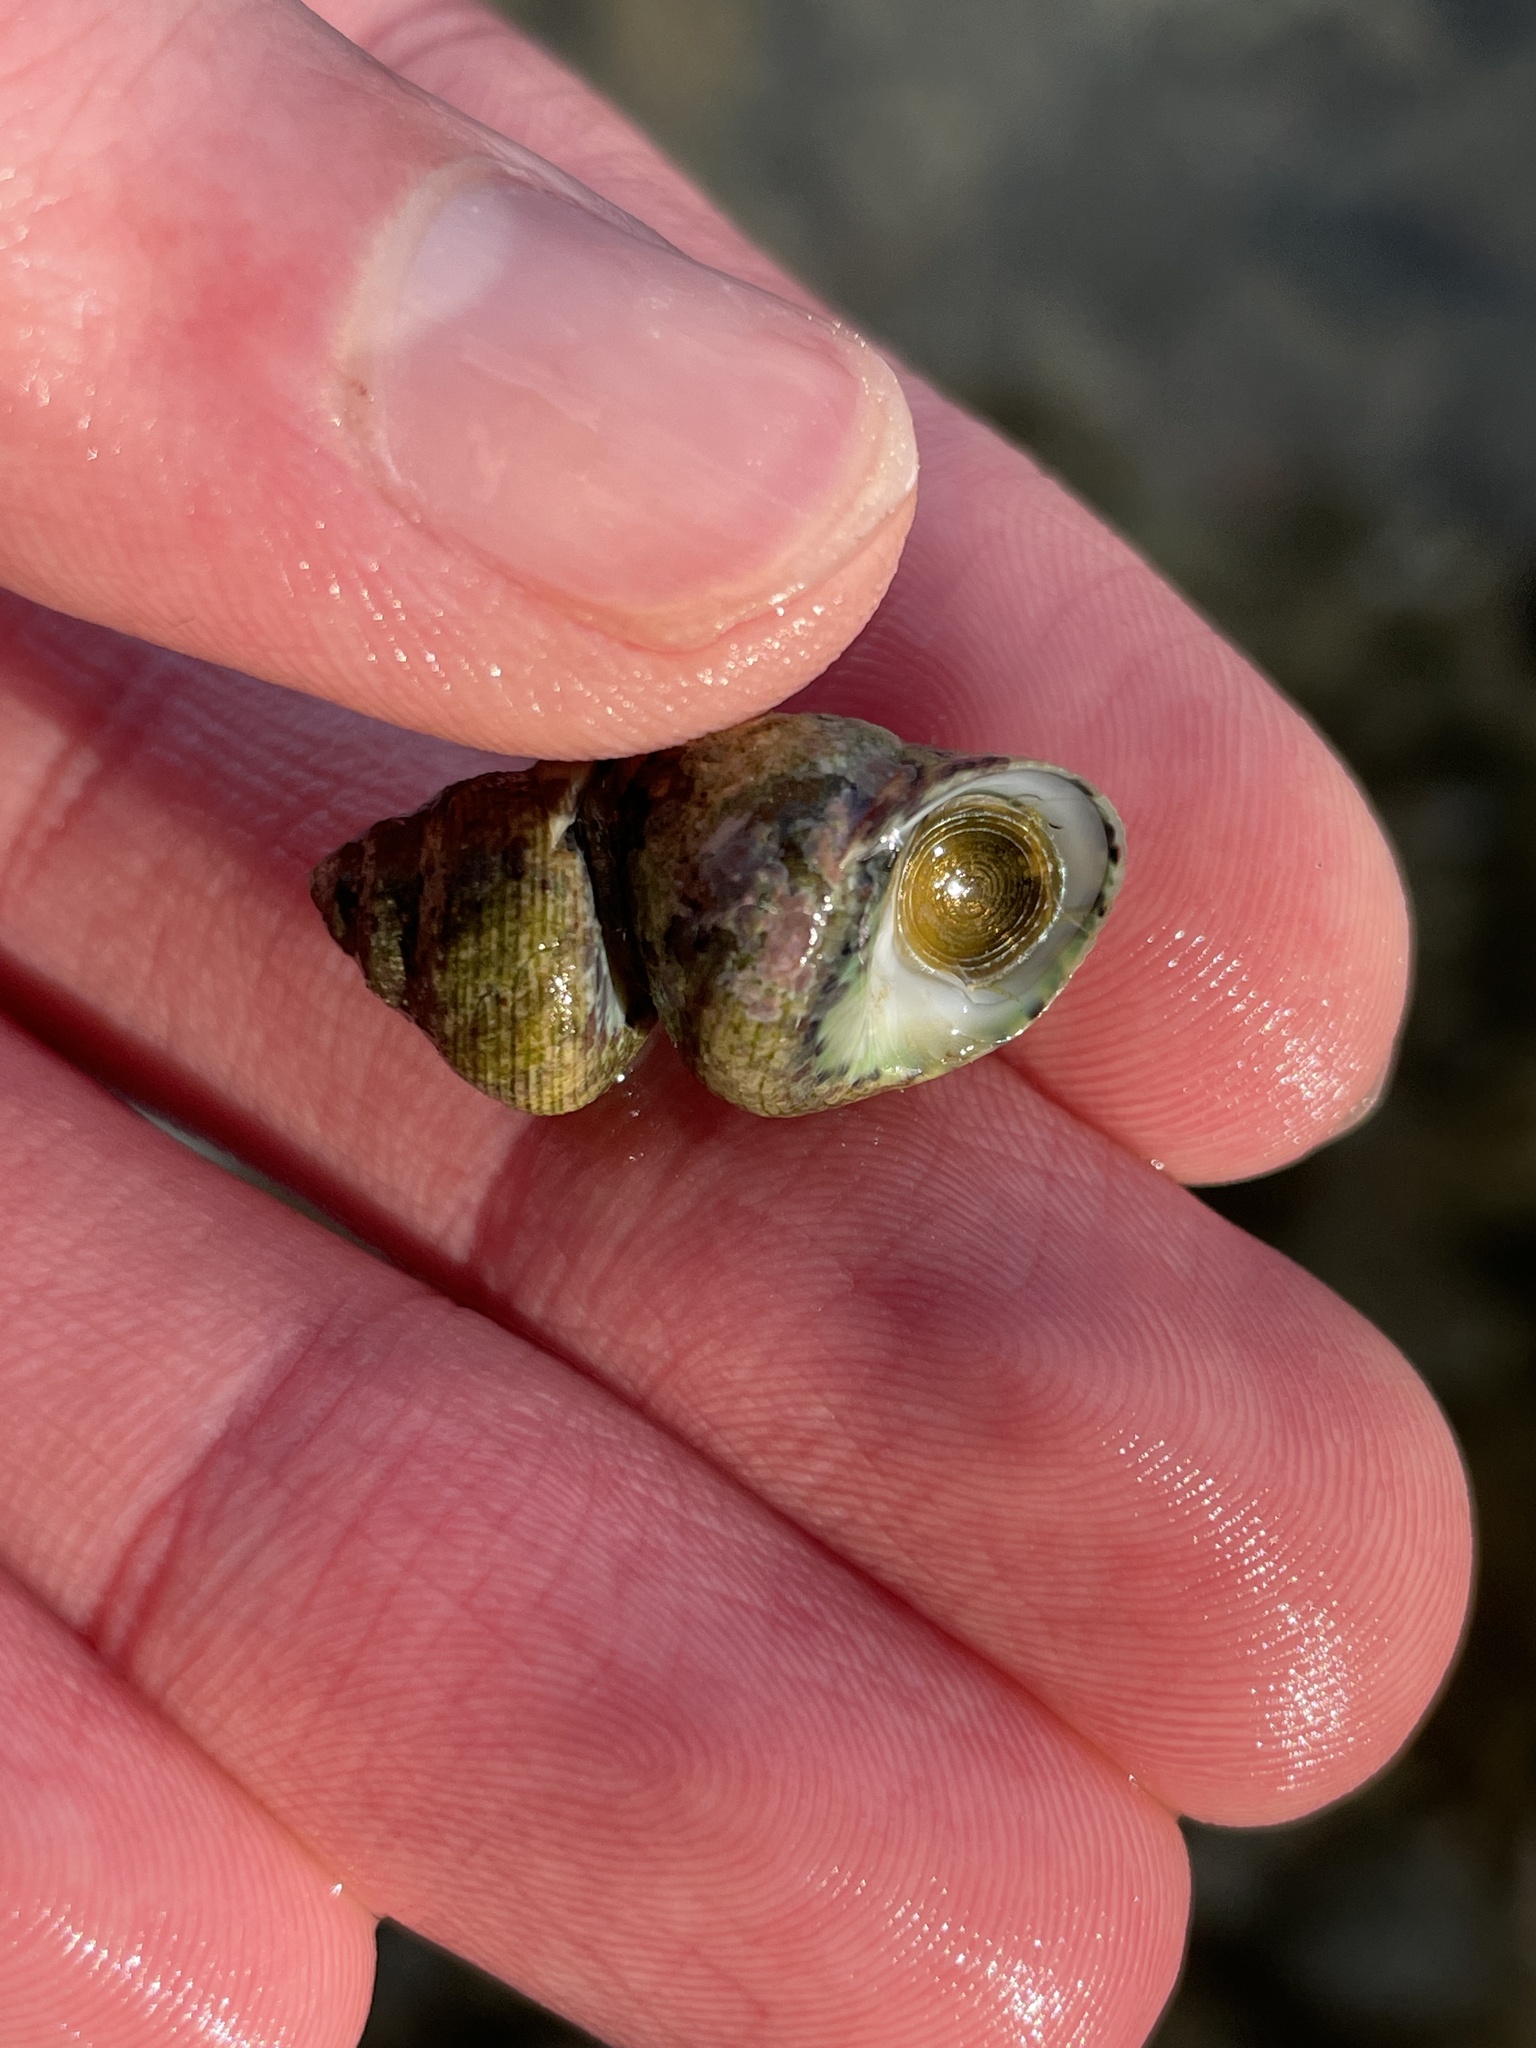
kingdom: Animalia
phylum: Mollusca
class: Gastropoda
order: Trochida
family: Trochidae
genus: Phorcus
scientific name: Phorcus articulatus
